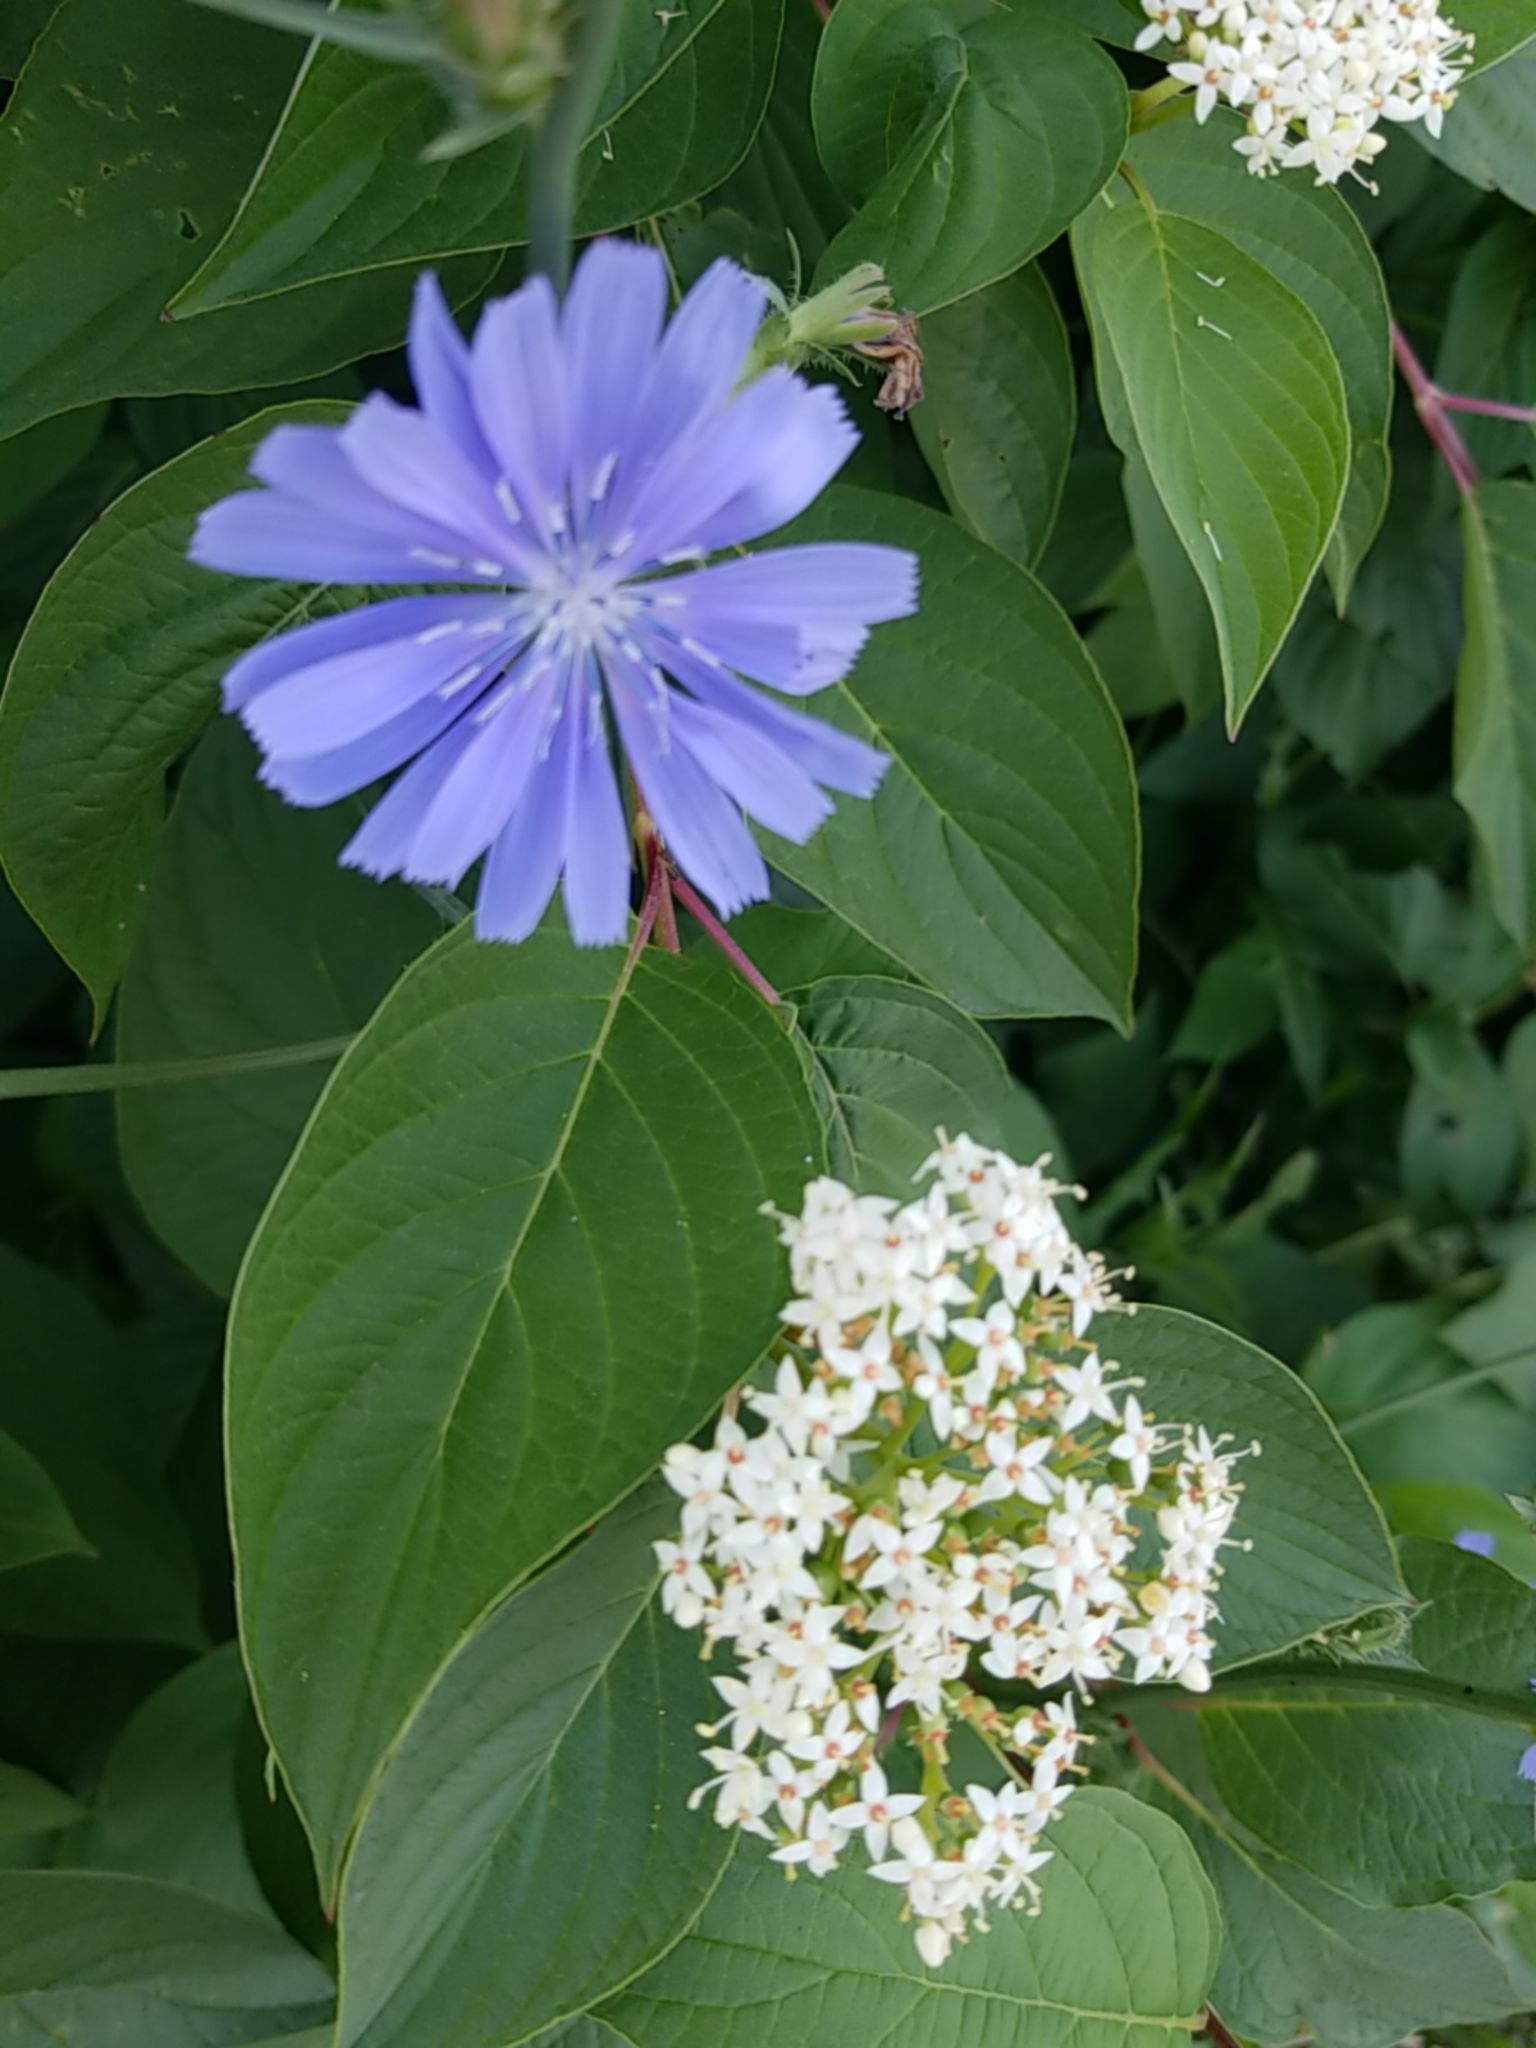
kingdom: Plantae
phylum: Tracheophyta
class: Magnoliopsida
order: Asterales
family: Asteraceae
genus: Cichorium
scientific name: Cichorium intybus
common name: Chicory
